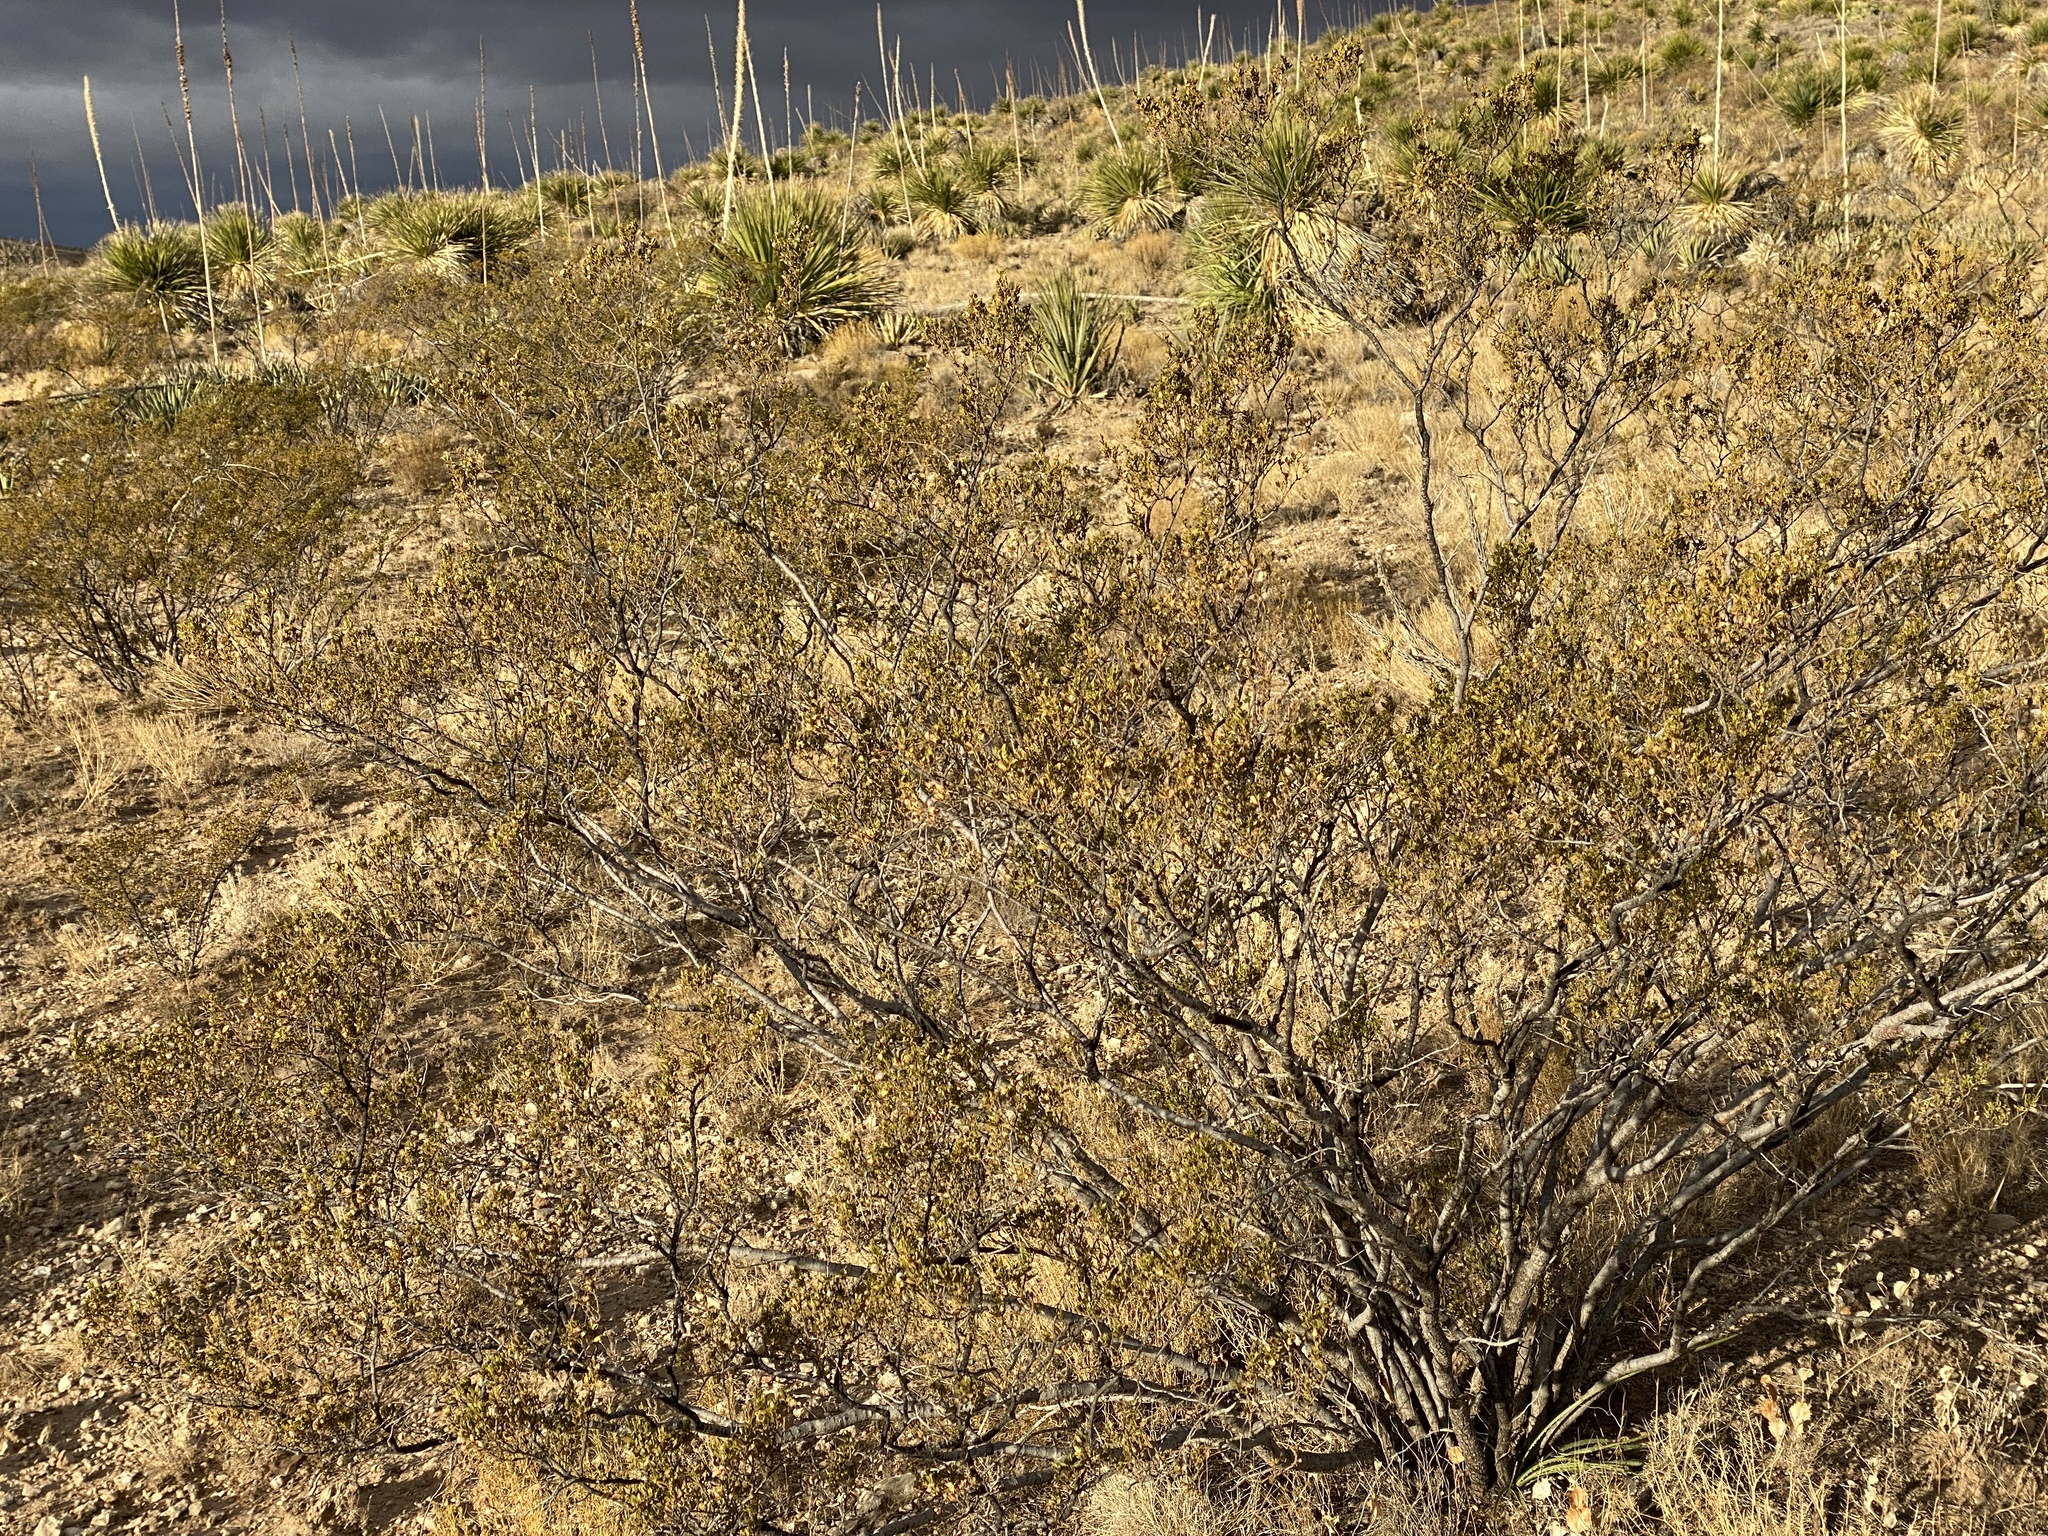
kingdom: Plantae
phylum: Tracheophyta
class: Magnoliopsida
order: Zygophyllales
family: Zygophyllaceae
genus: Larrea
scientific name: Larrea tridentata
